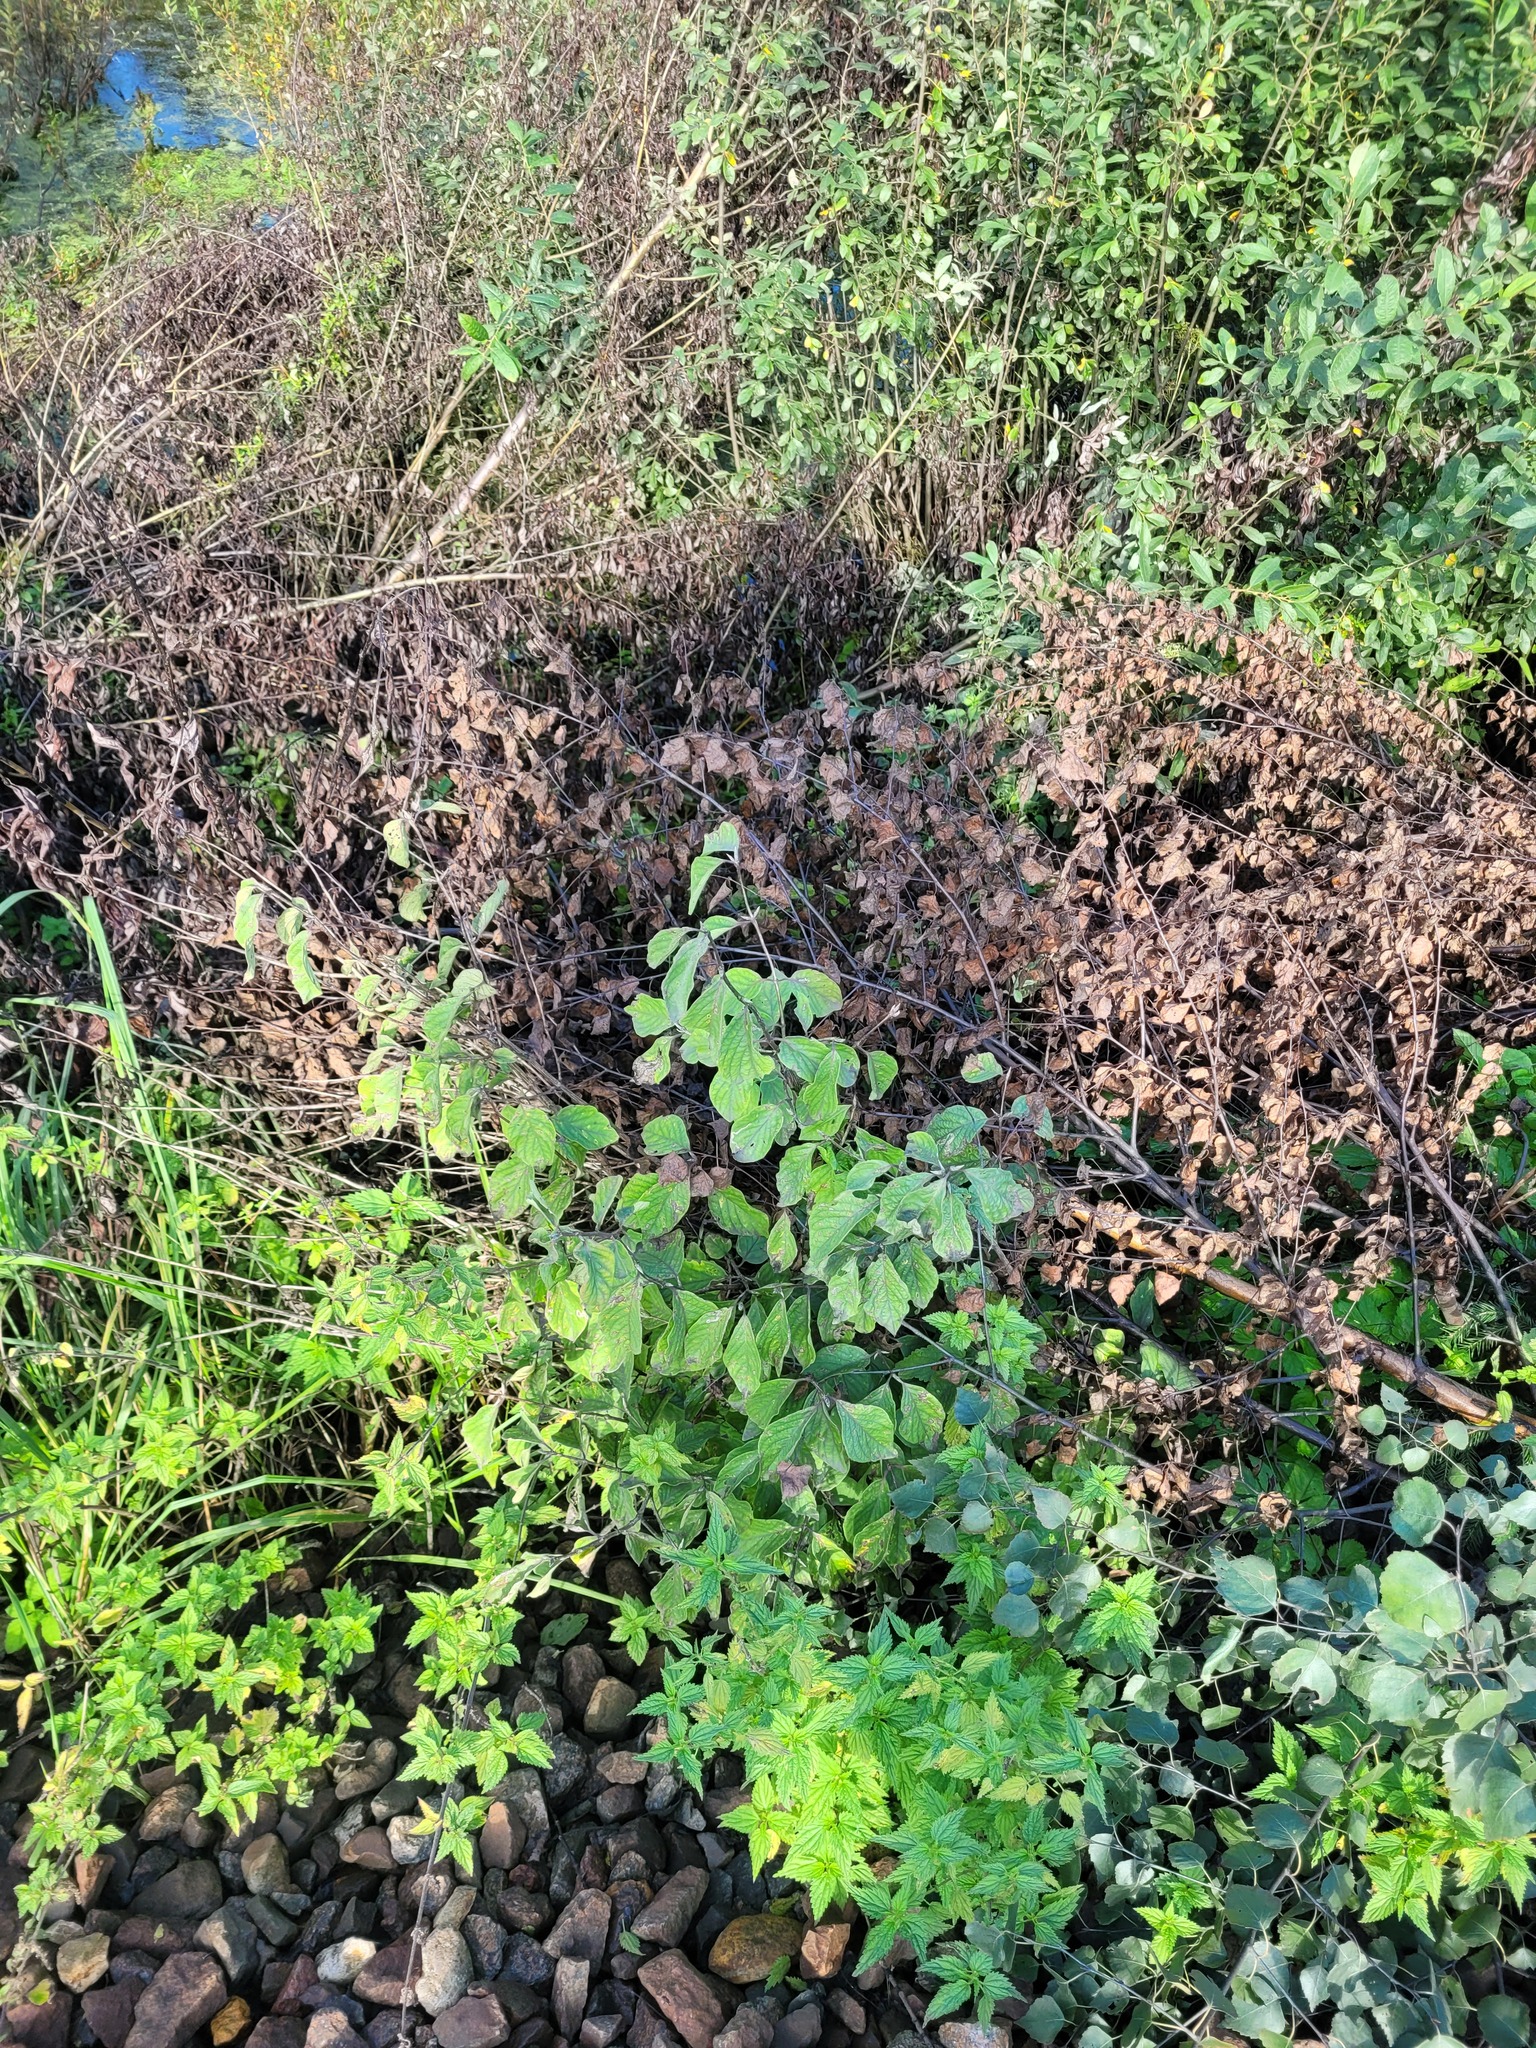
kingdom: Plantae
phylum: Tracheophyta
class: Magnoliopsida
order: Dipsacales
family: Caprifoliaceae
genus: Lonicera
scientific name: Lonicera xylosteum
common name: Fly honeysuckle
